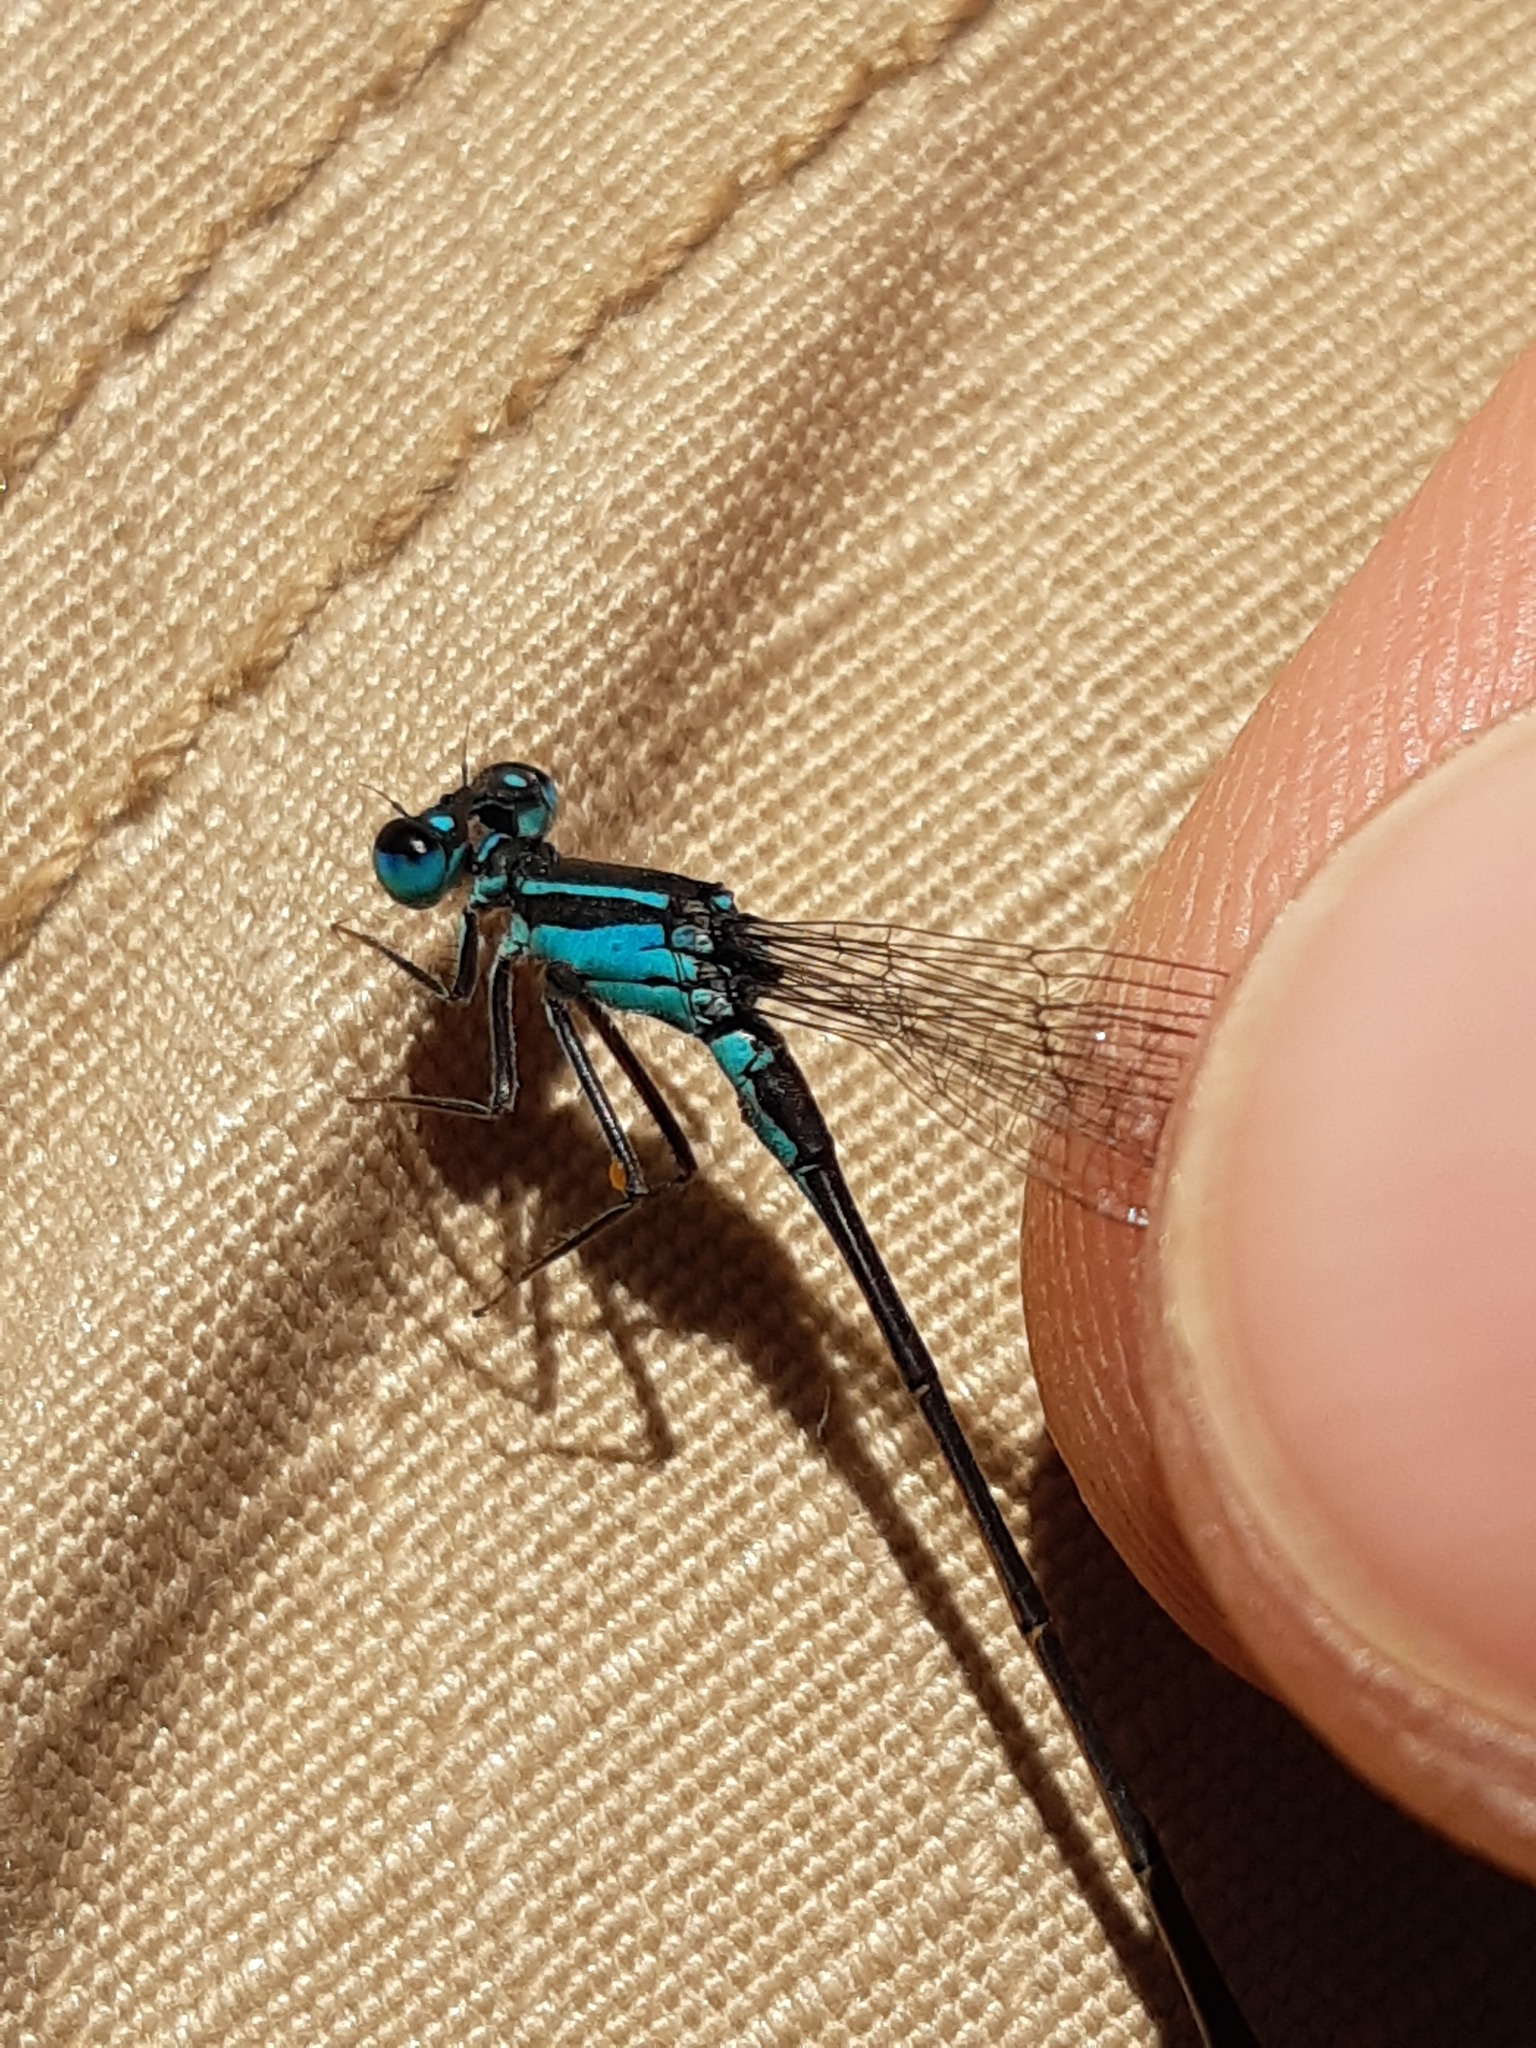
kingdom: Animalia
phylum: Arthropoda
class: Insecta
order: Odonata
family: Coenagrionidae
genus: Ischnura
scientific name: Ischnura elegans
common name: Blue-tailed damselfly
